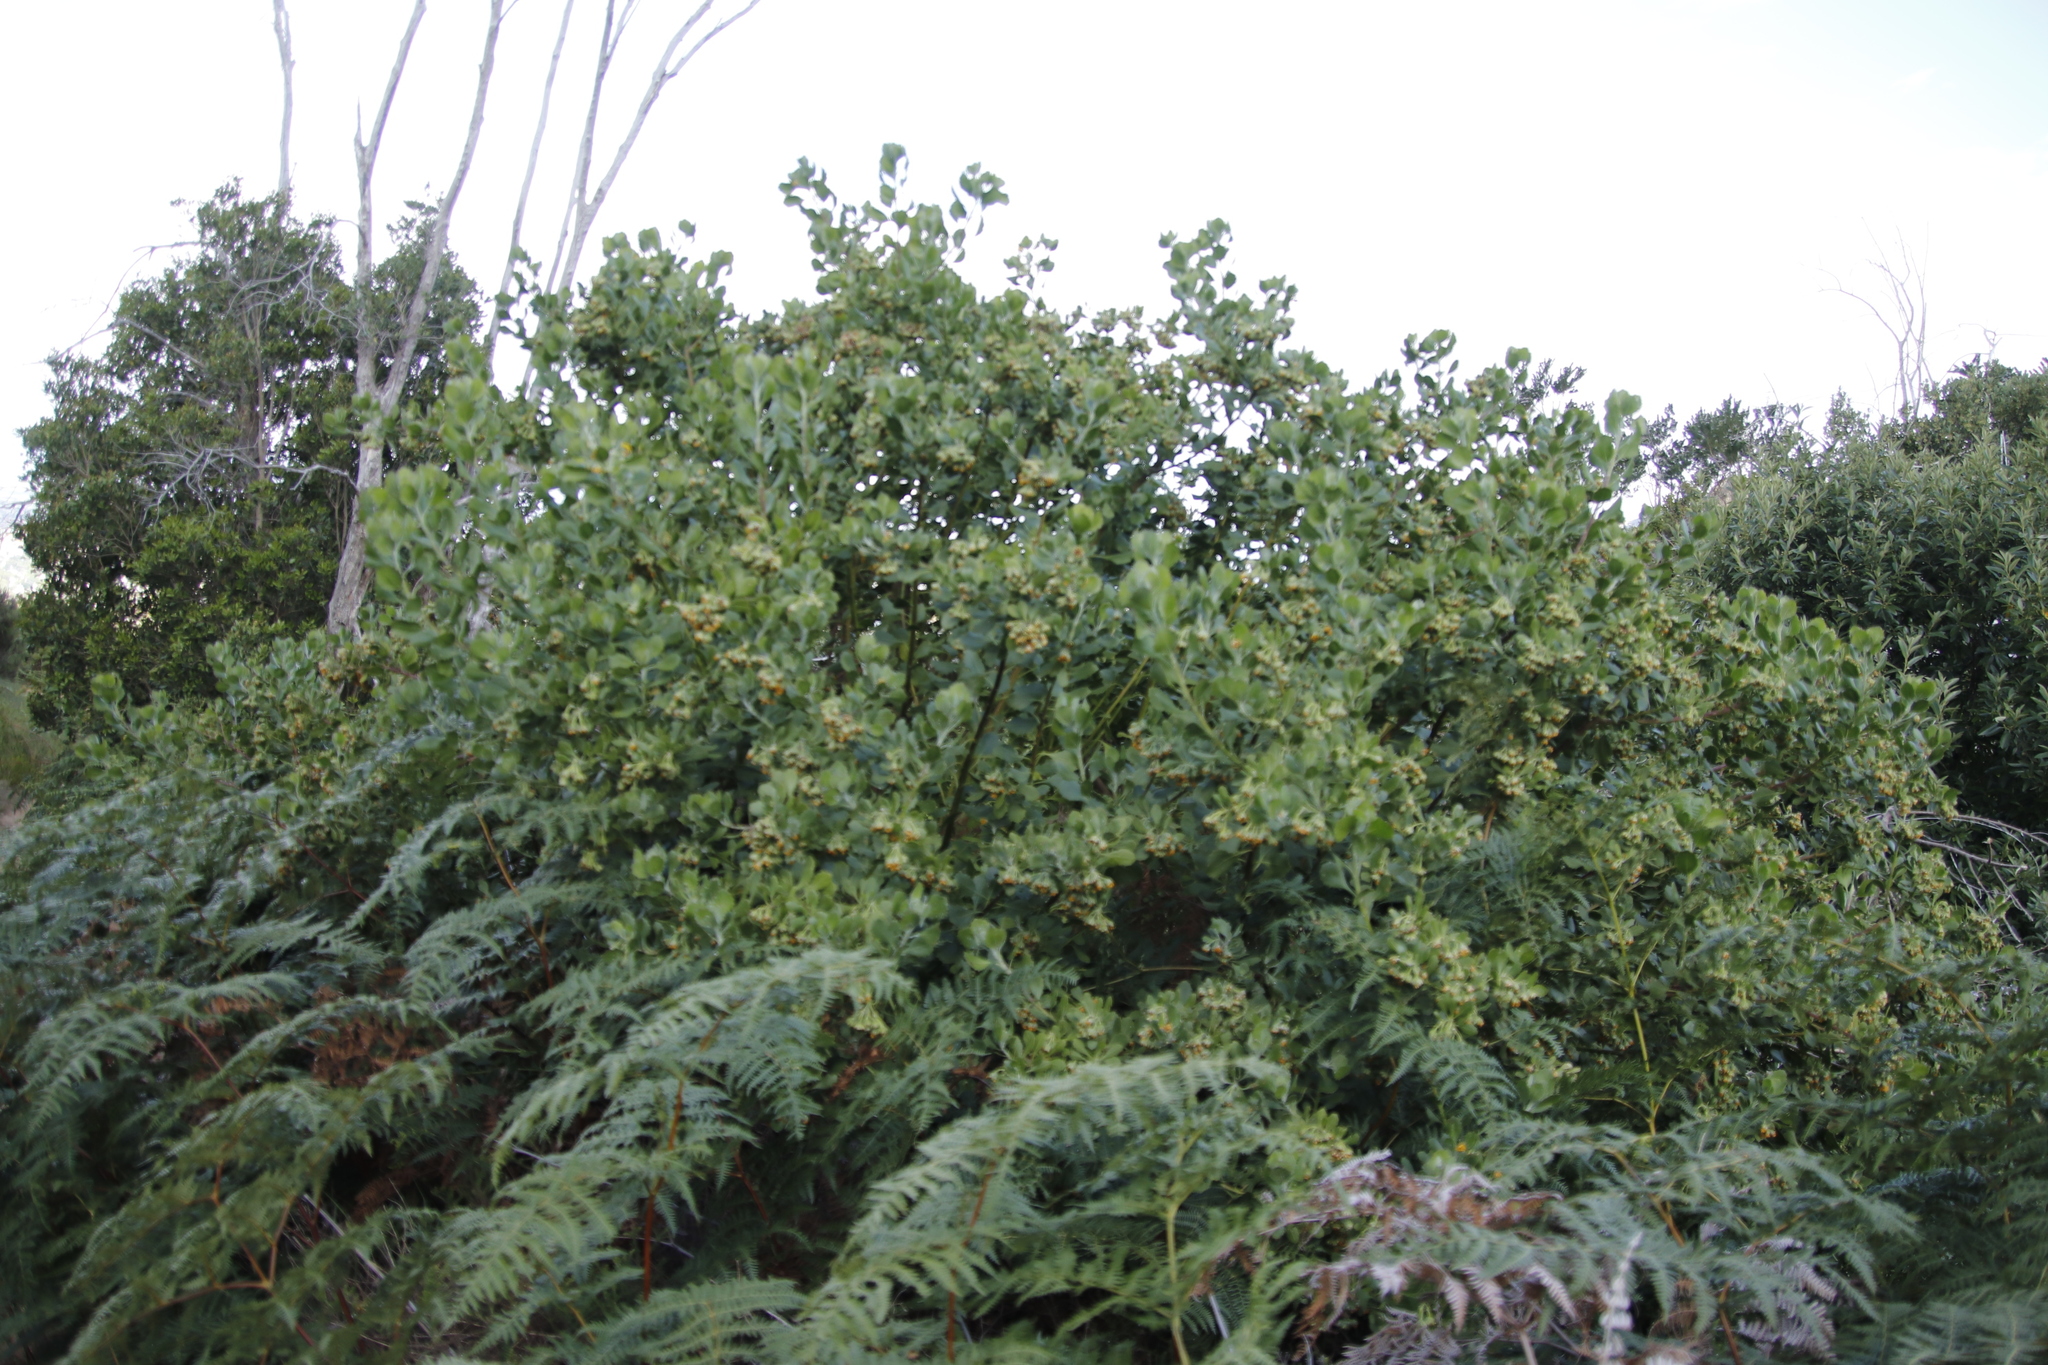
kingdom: Plantae
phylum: Tracheophyta
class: Magnoliopsida
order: Asterales
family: Asteraceae
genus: Osteospermum
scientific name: Osteospermum moniliferum
